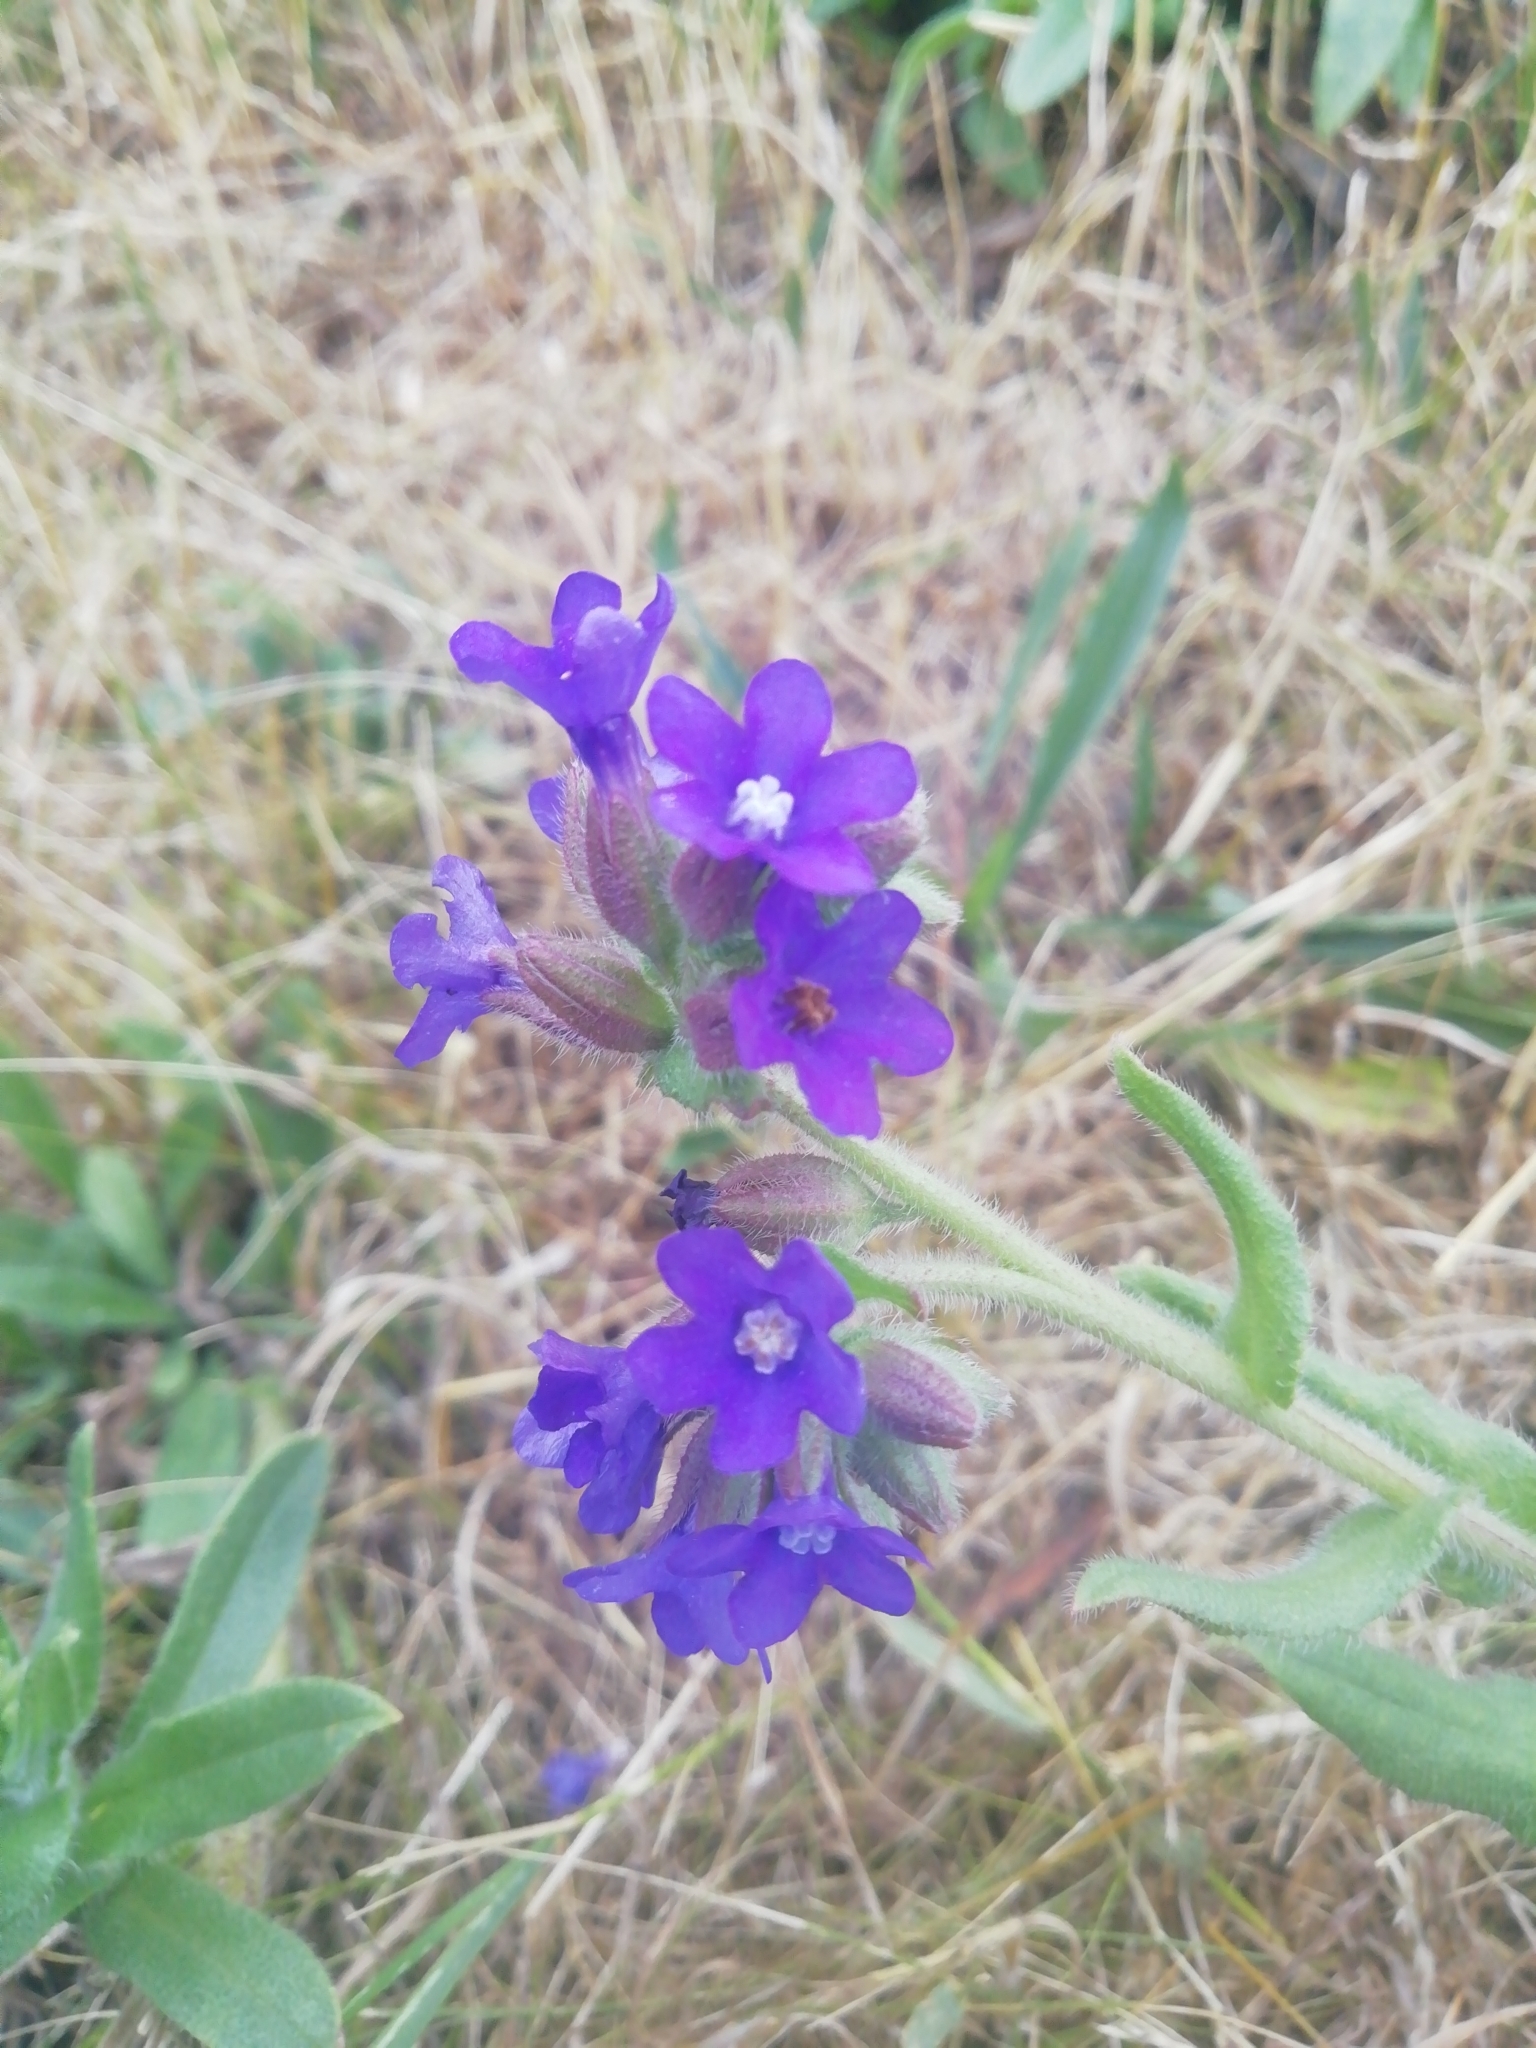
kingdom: Plantae
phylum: Tracheophyta
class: Magnoliopsida
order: Boraginales
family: Boraginaceae
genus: Anchusa
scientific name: Anchusa officinalis
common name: Alkanet
